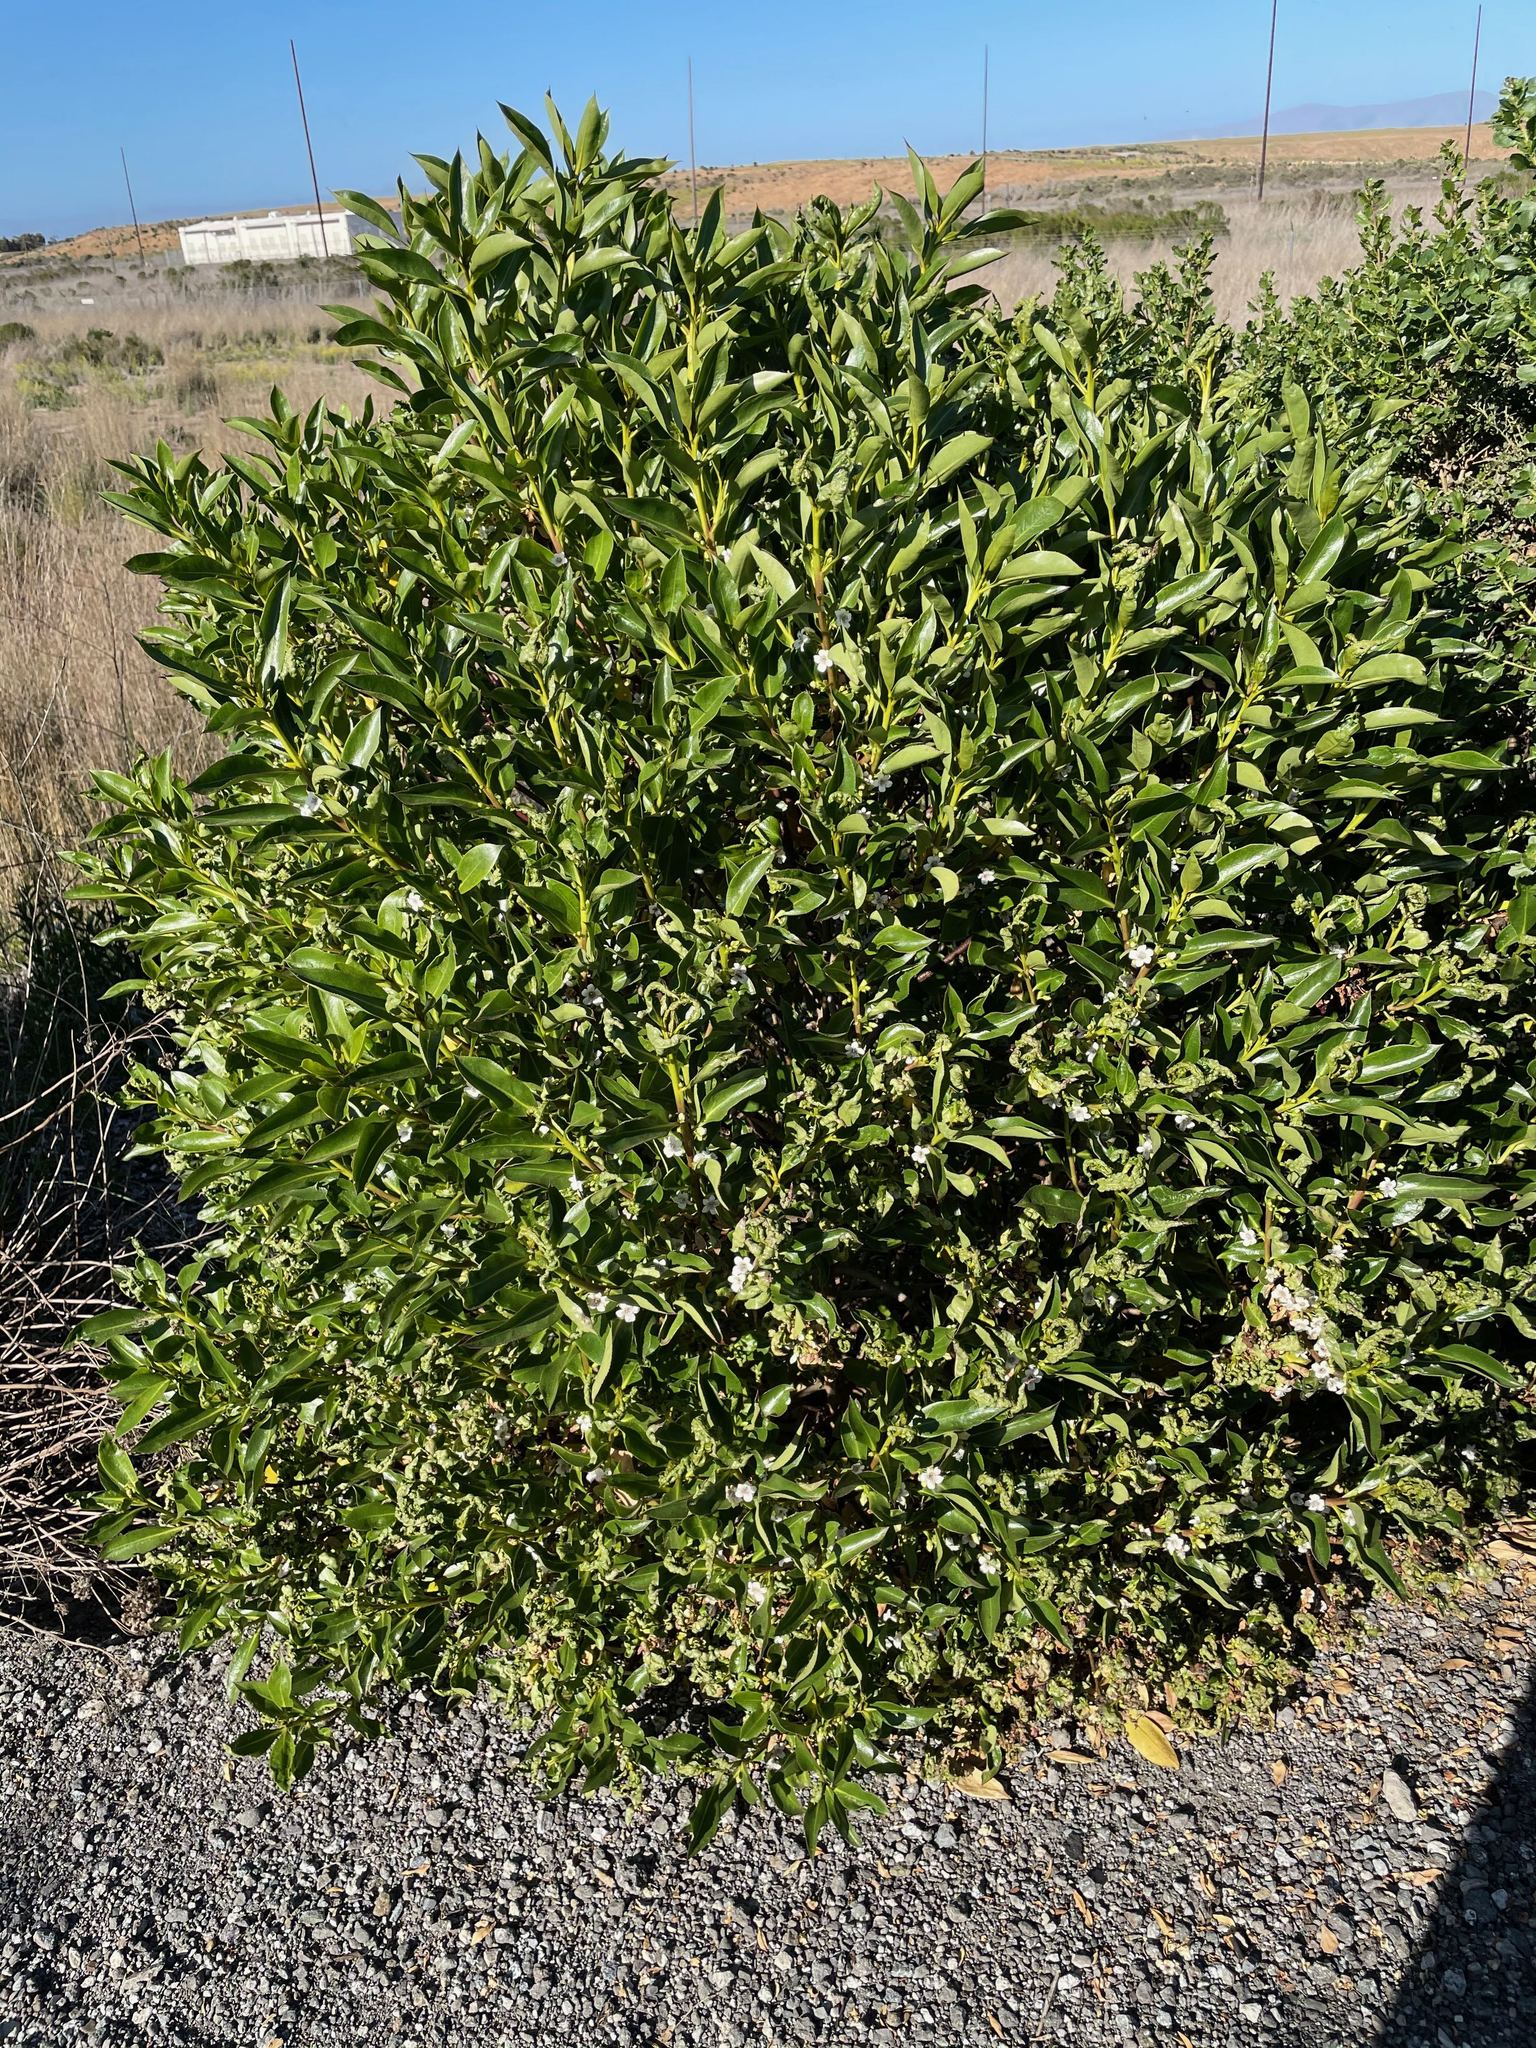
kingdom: Plantae
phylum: Tracheophyta
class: Magnoliopsida
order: Lamiales
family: Scrophulariaceae
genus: Myoporum
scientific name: Myoporum laetum
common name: Ngaio tree
